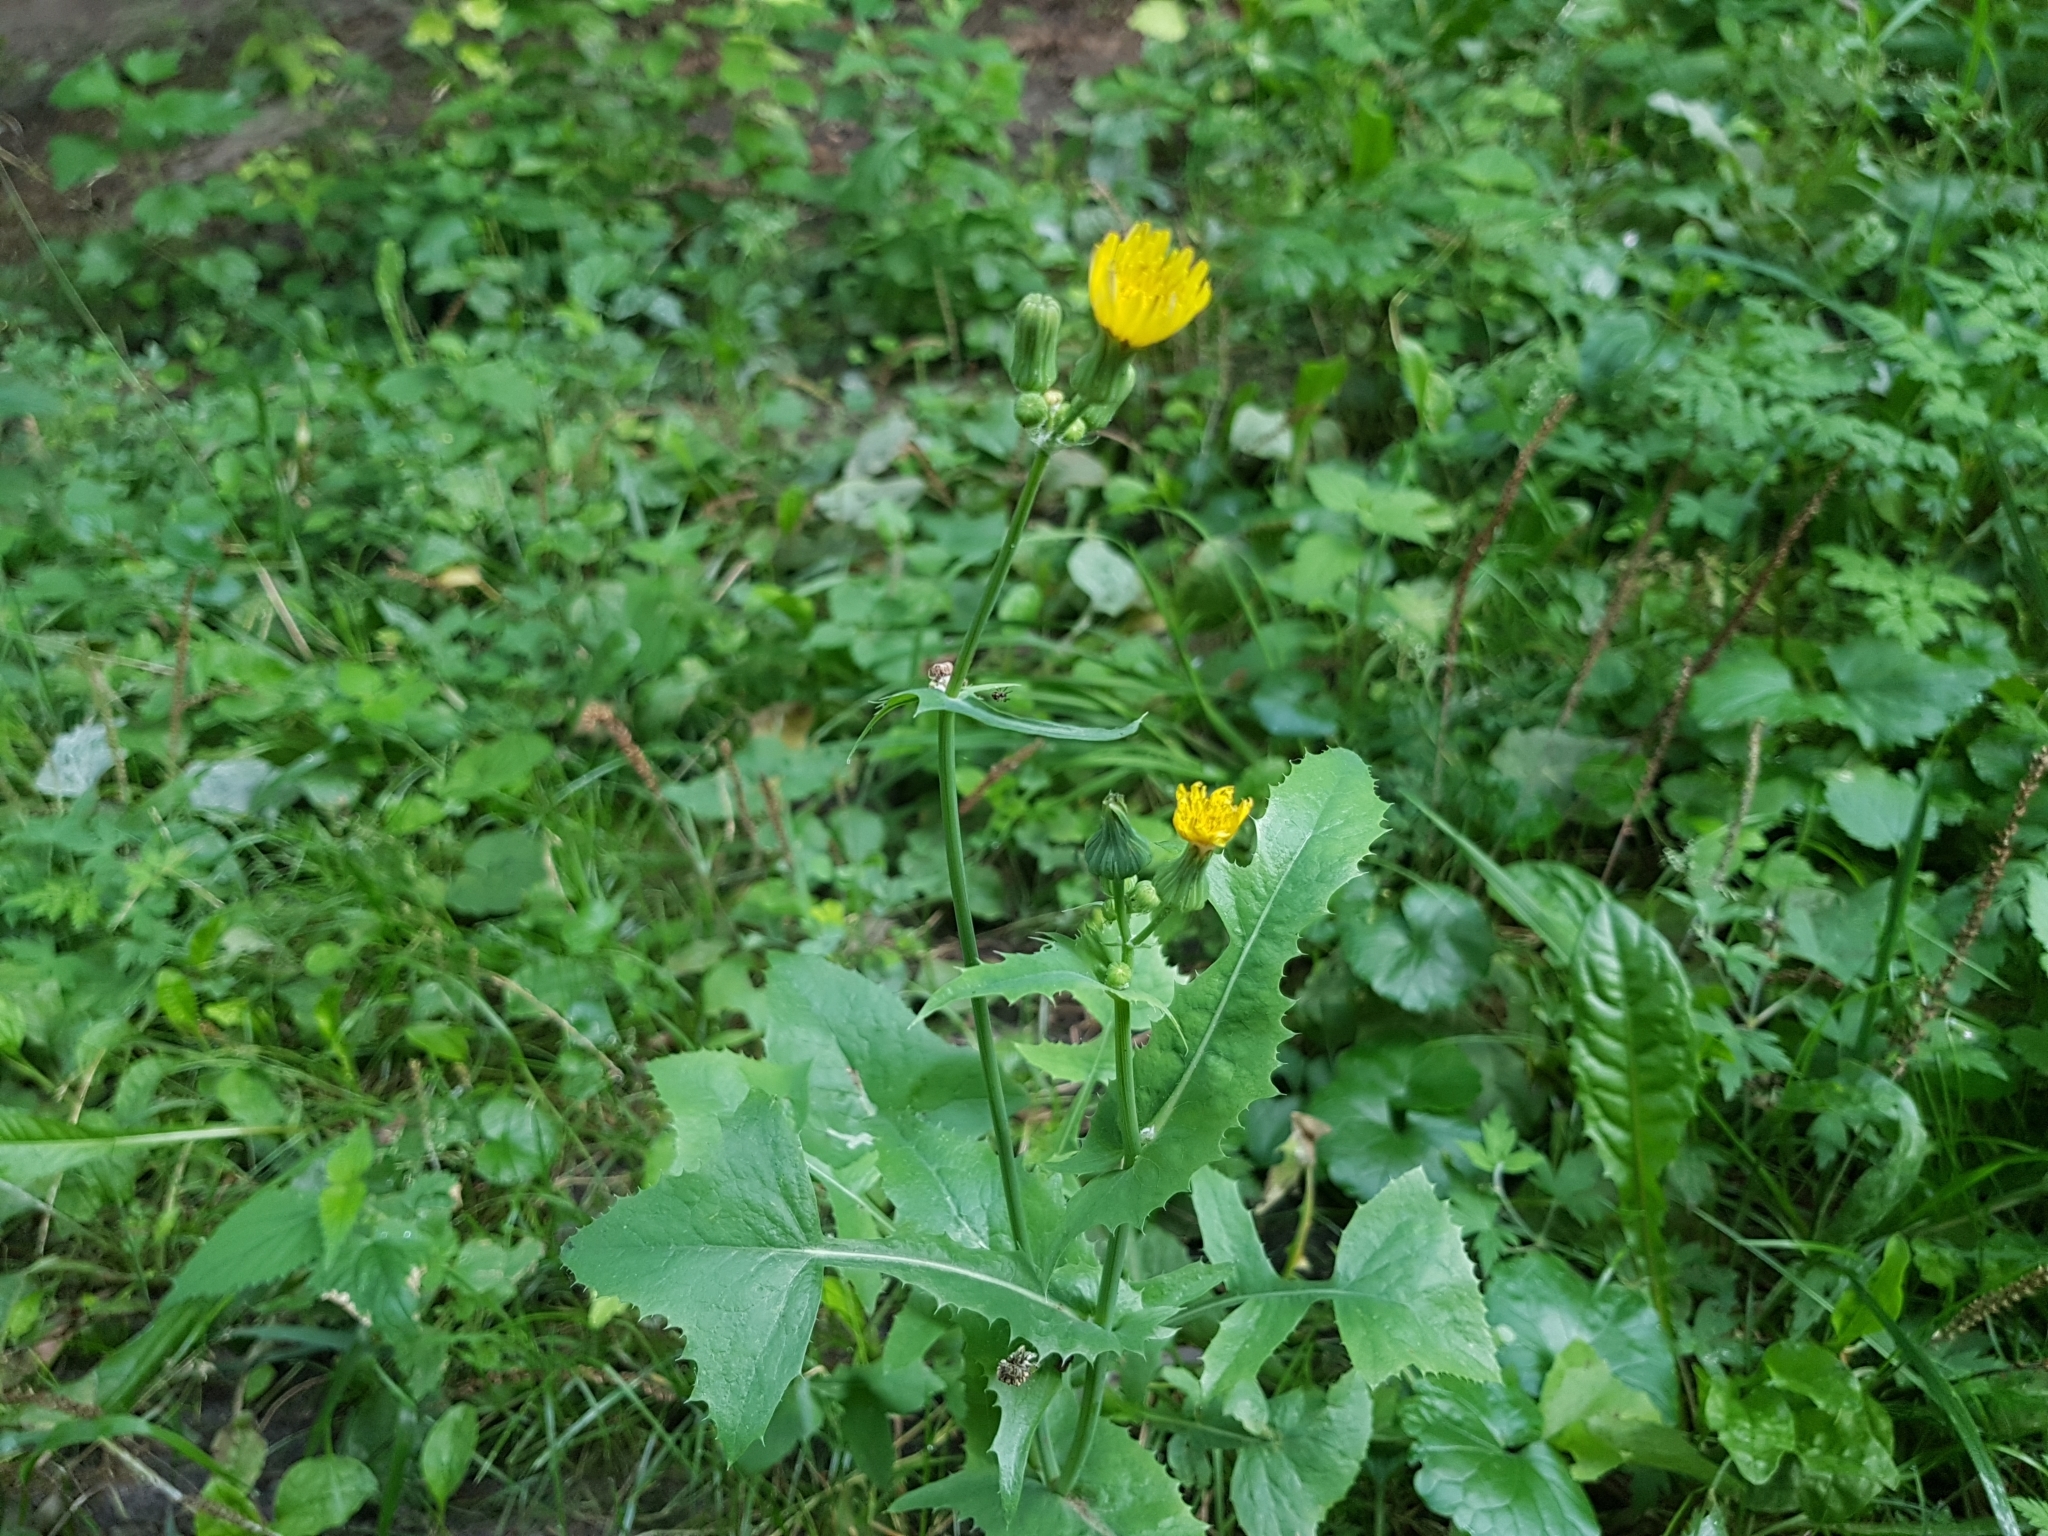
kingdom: Plantae
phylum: Tracheophyta
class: Magnoliopsida
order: Asterales
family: Asteraceae
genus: Sonchus
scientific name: Sonchus oleraceus
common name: Common sowthistle
